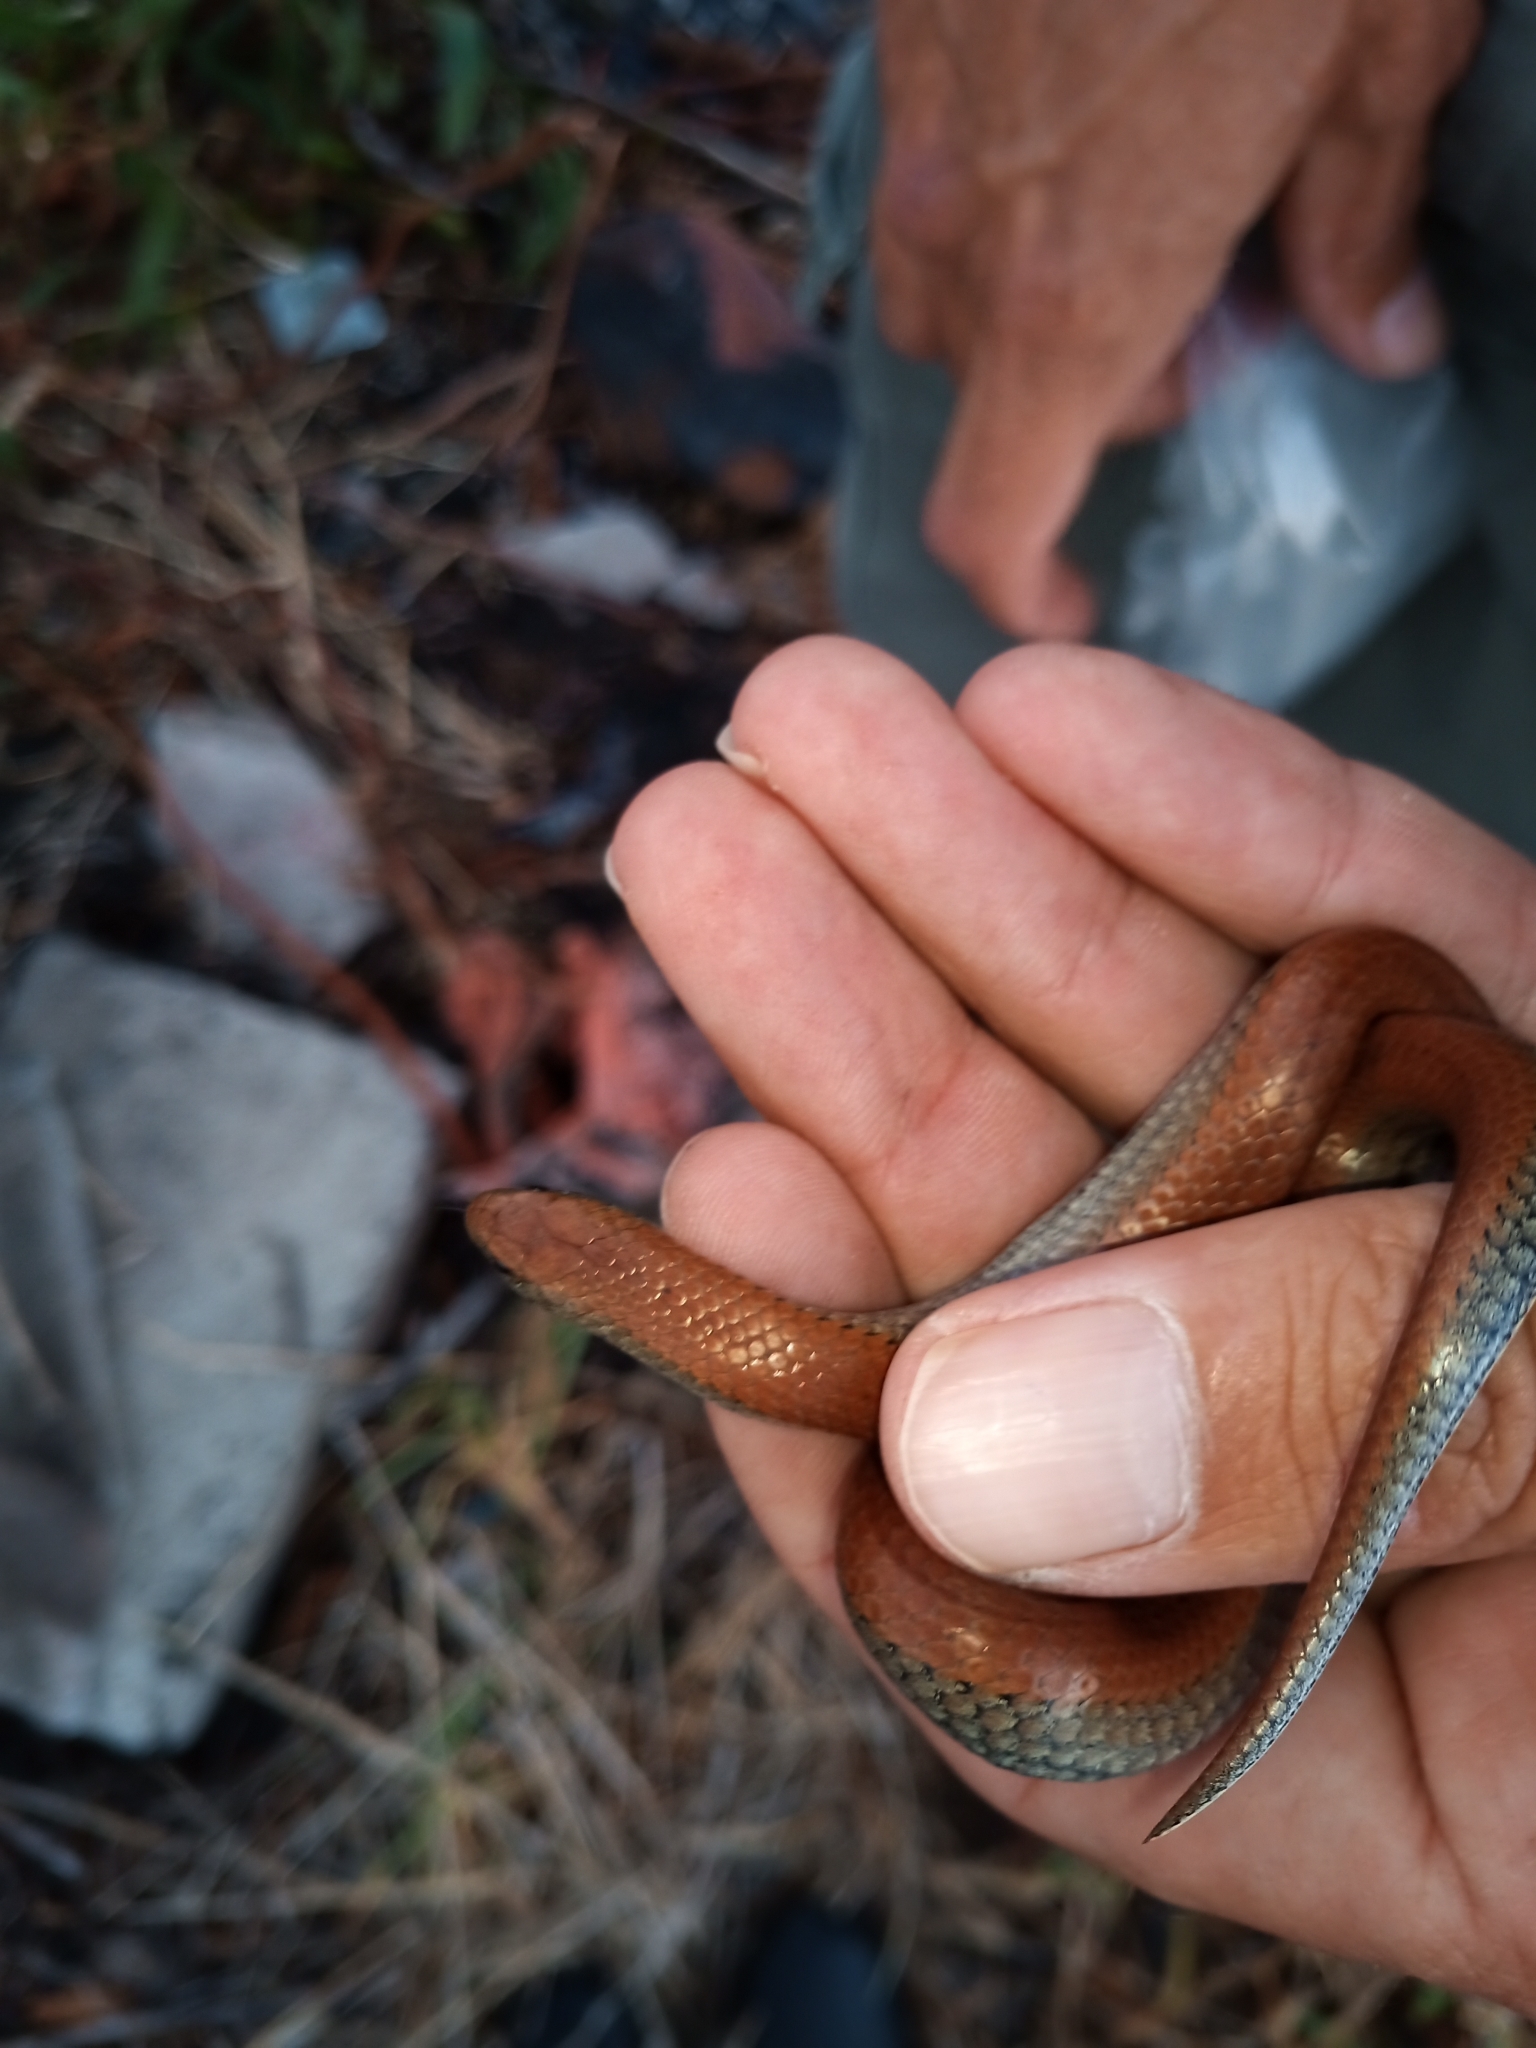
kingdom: Animalia
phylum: Chordata
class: Squamata
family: Pseudoxyrhophiidae
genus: Duberria
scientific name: Duberria lutrix
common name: Common slug eater
